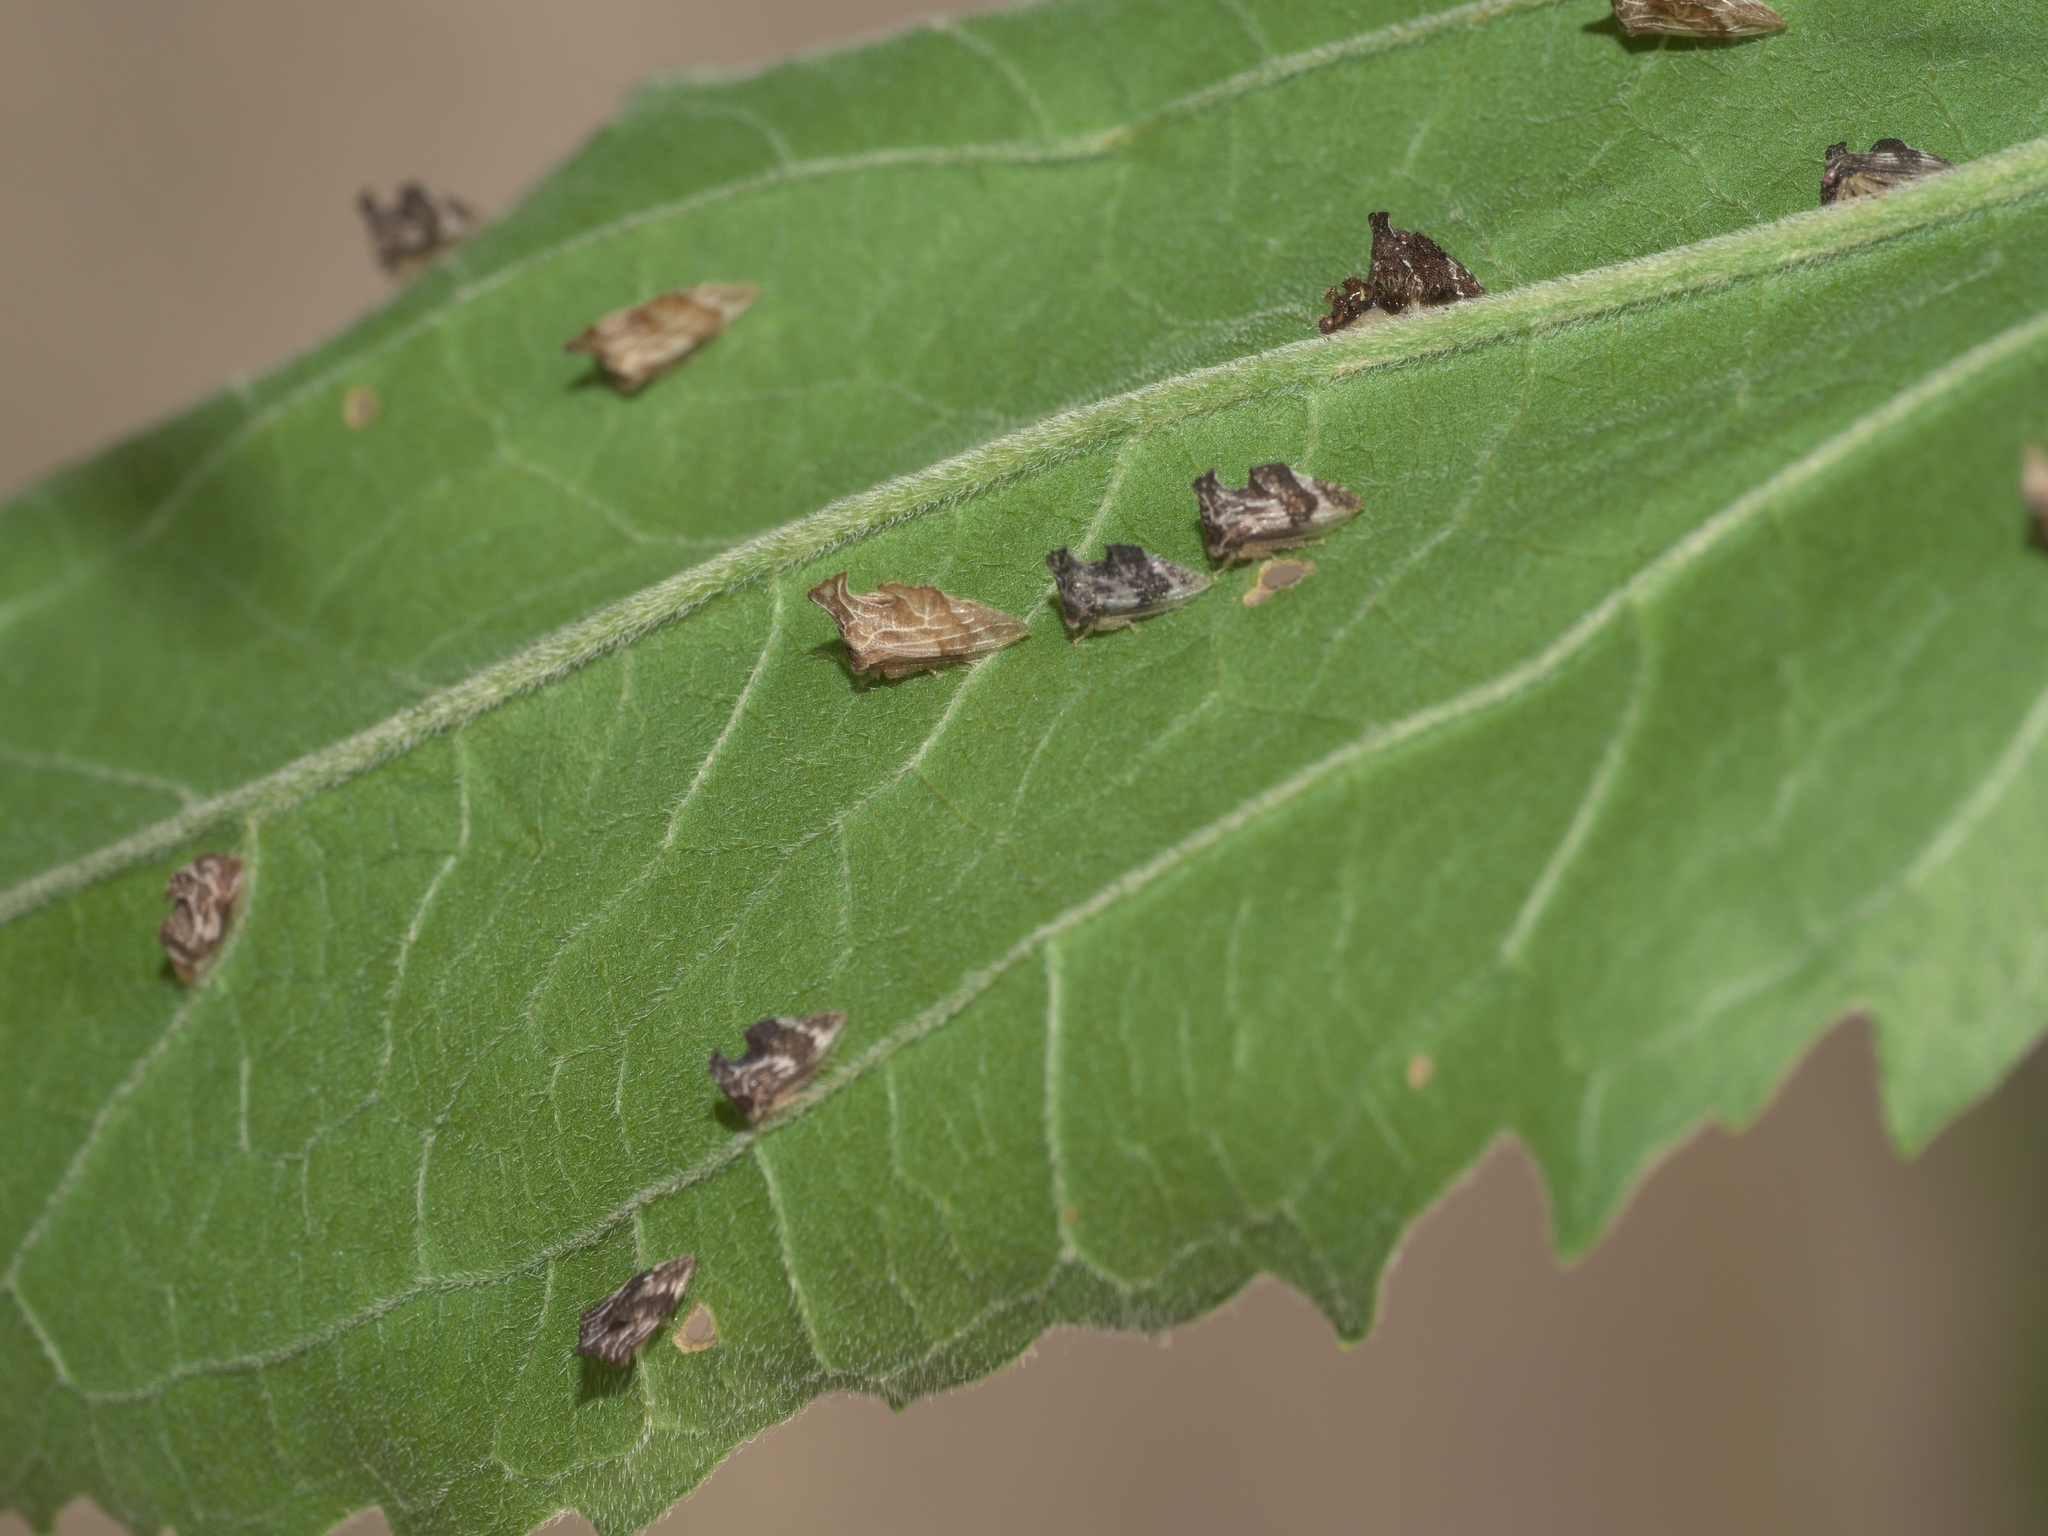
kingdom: Animalia
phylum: Arthropoda
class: Insecta
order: Hemiptera
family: Membracidae
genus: Entylia
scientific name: Entylia carinata
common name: Keeled treehopper
